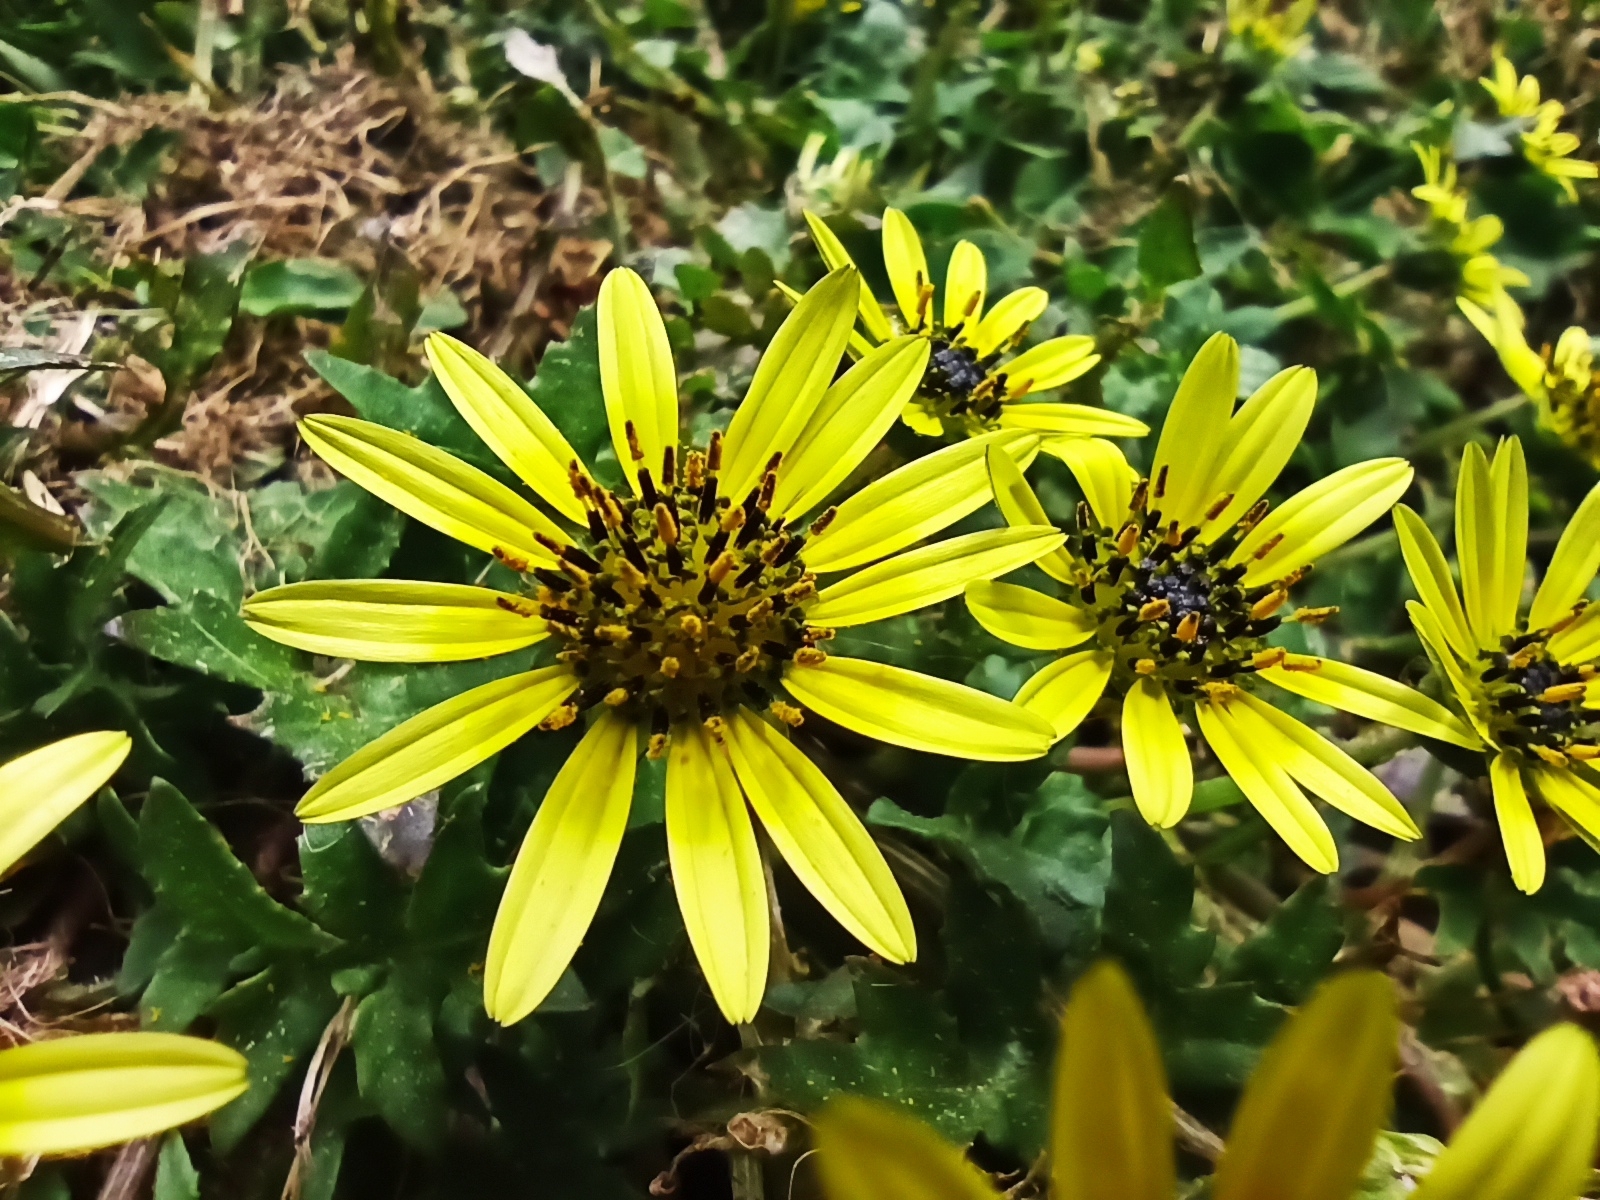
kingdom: Plantae
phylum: Tracheophyta
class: Magnoliopsida
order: Asterales
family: Asteraceae
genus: Arctotheca
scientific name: Arctotheca calendula
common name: Capeweed
